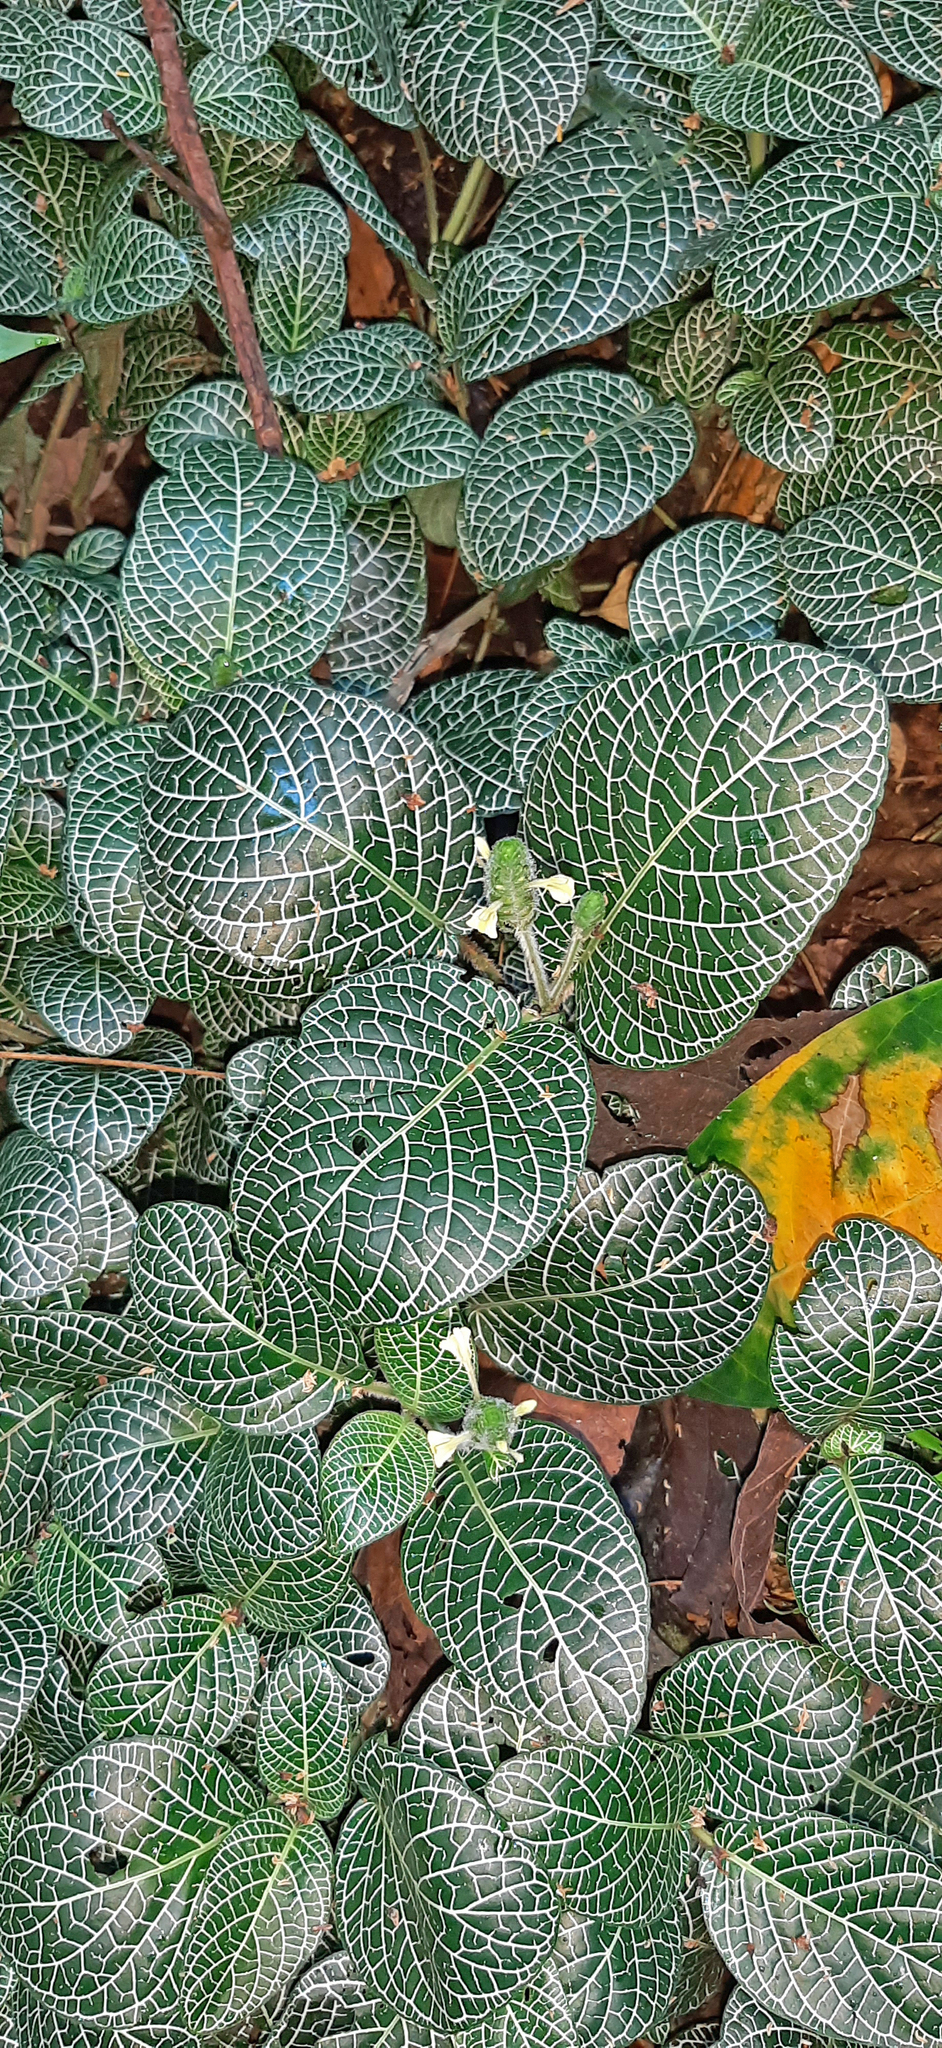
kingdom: Plantae
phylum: Tracheophyta
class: Magnoliopsida
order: Lamiales
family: Acanthaceae
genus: Fittonia
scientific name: Fittonia albivenis
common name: Mosaic-plant
